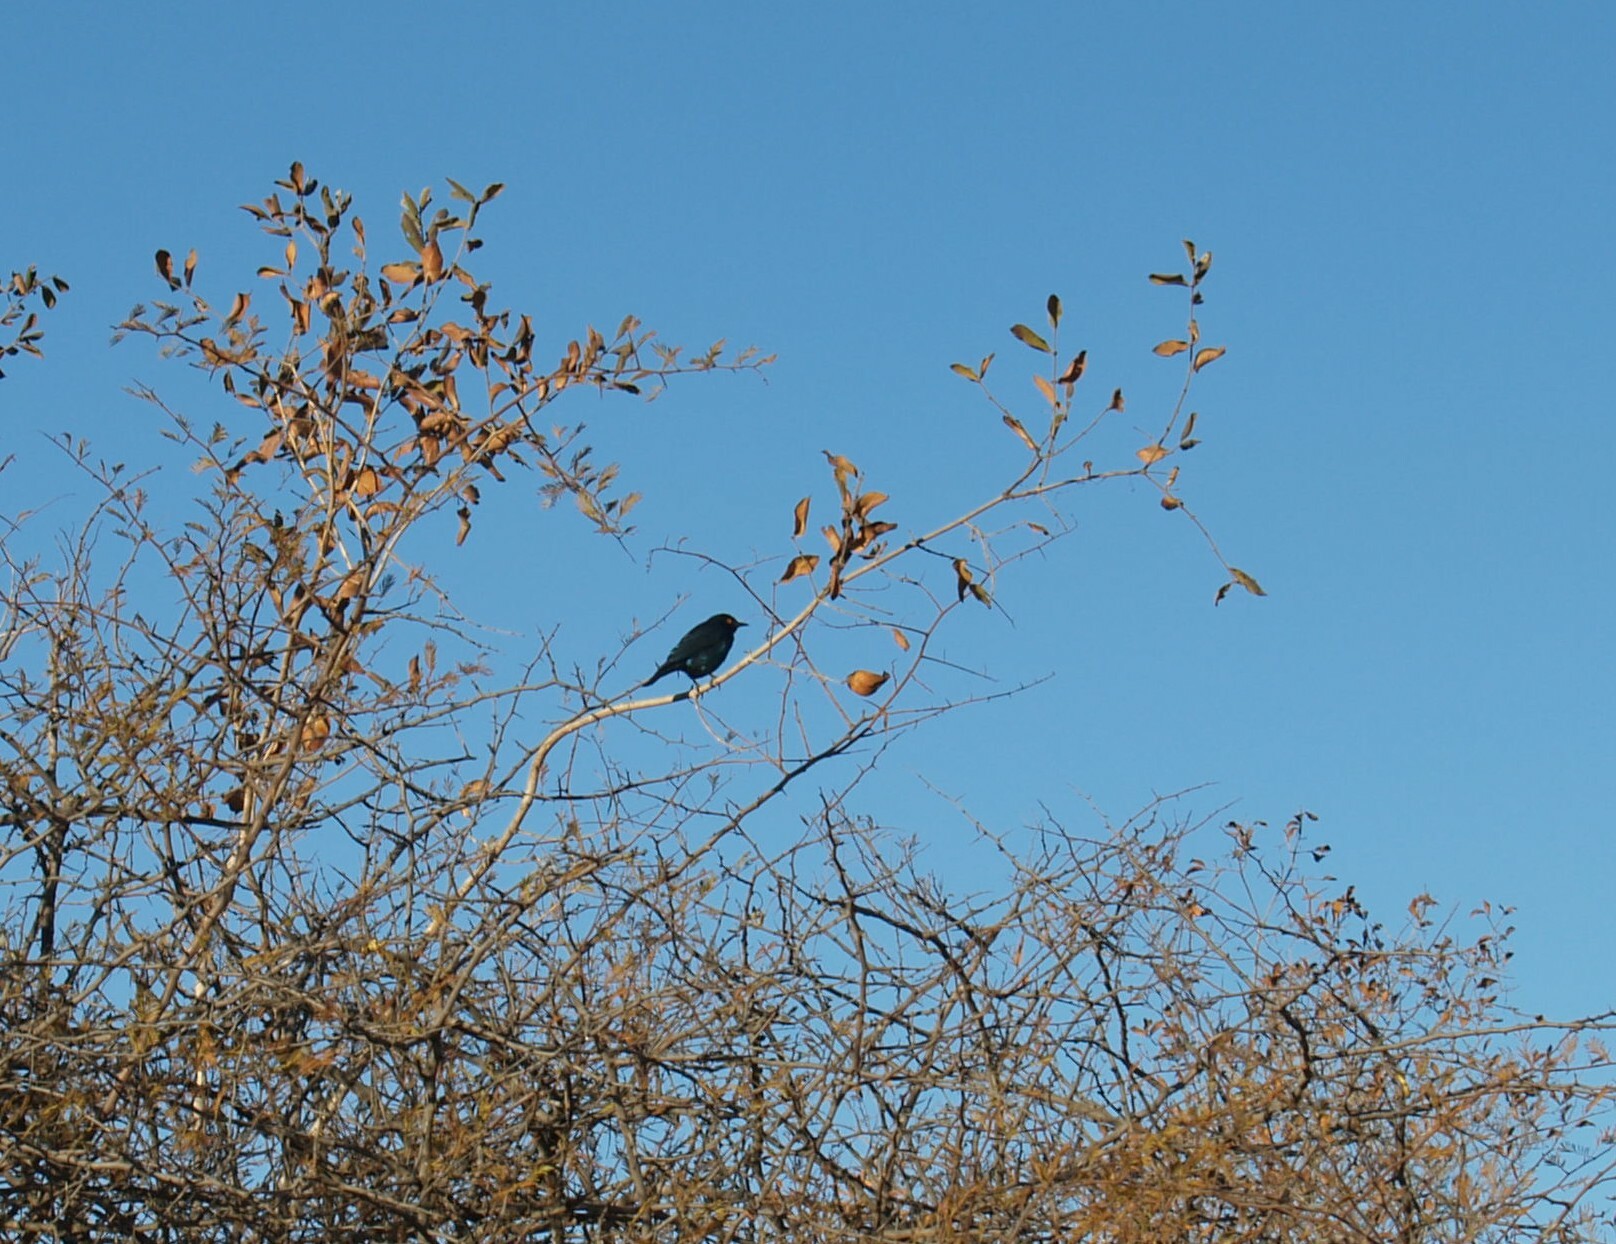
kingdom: Animalia
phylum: Chordata
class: Aves
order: Passeriformes
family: Sturnidae
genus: Lamprotornis
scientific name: Lamprotornis nitens
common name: Cape starling
